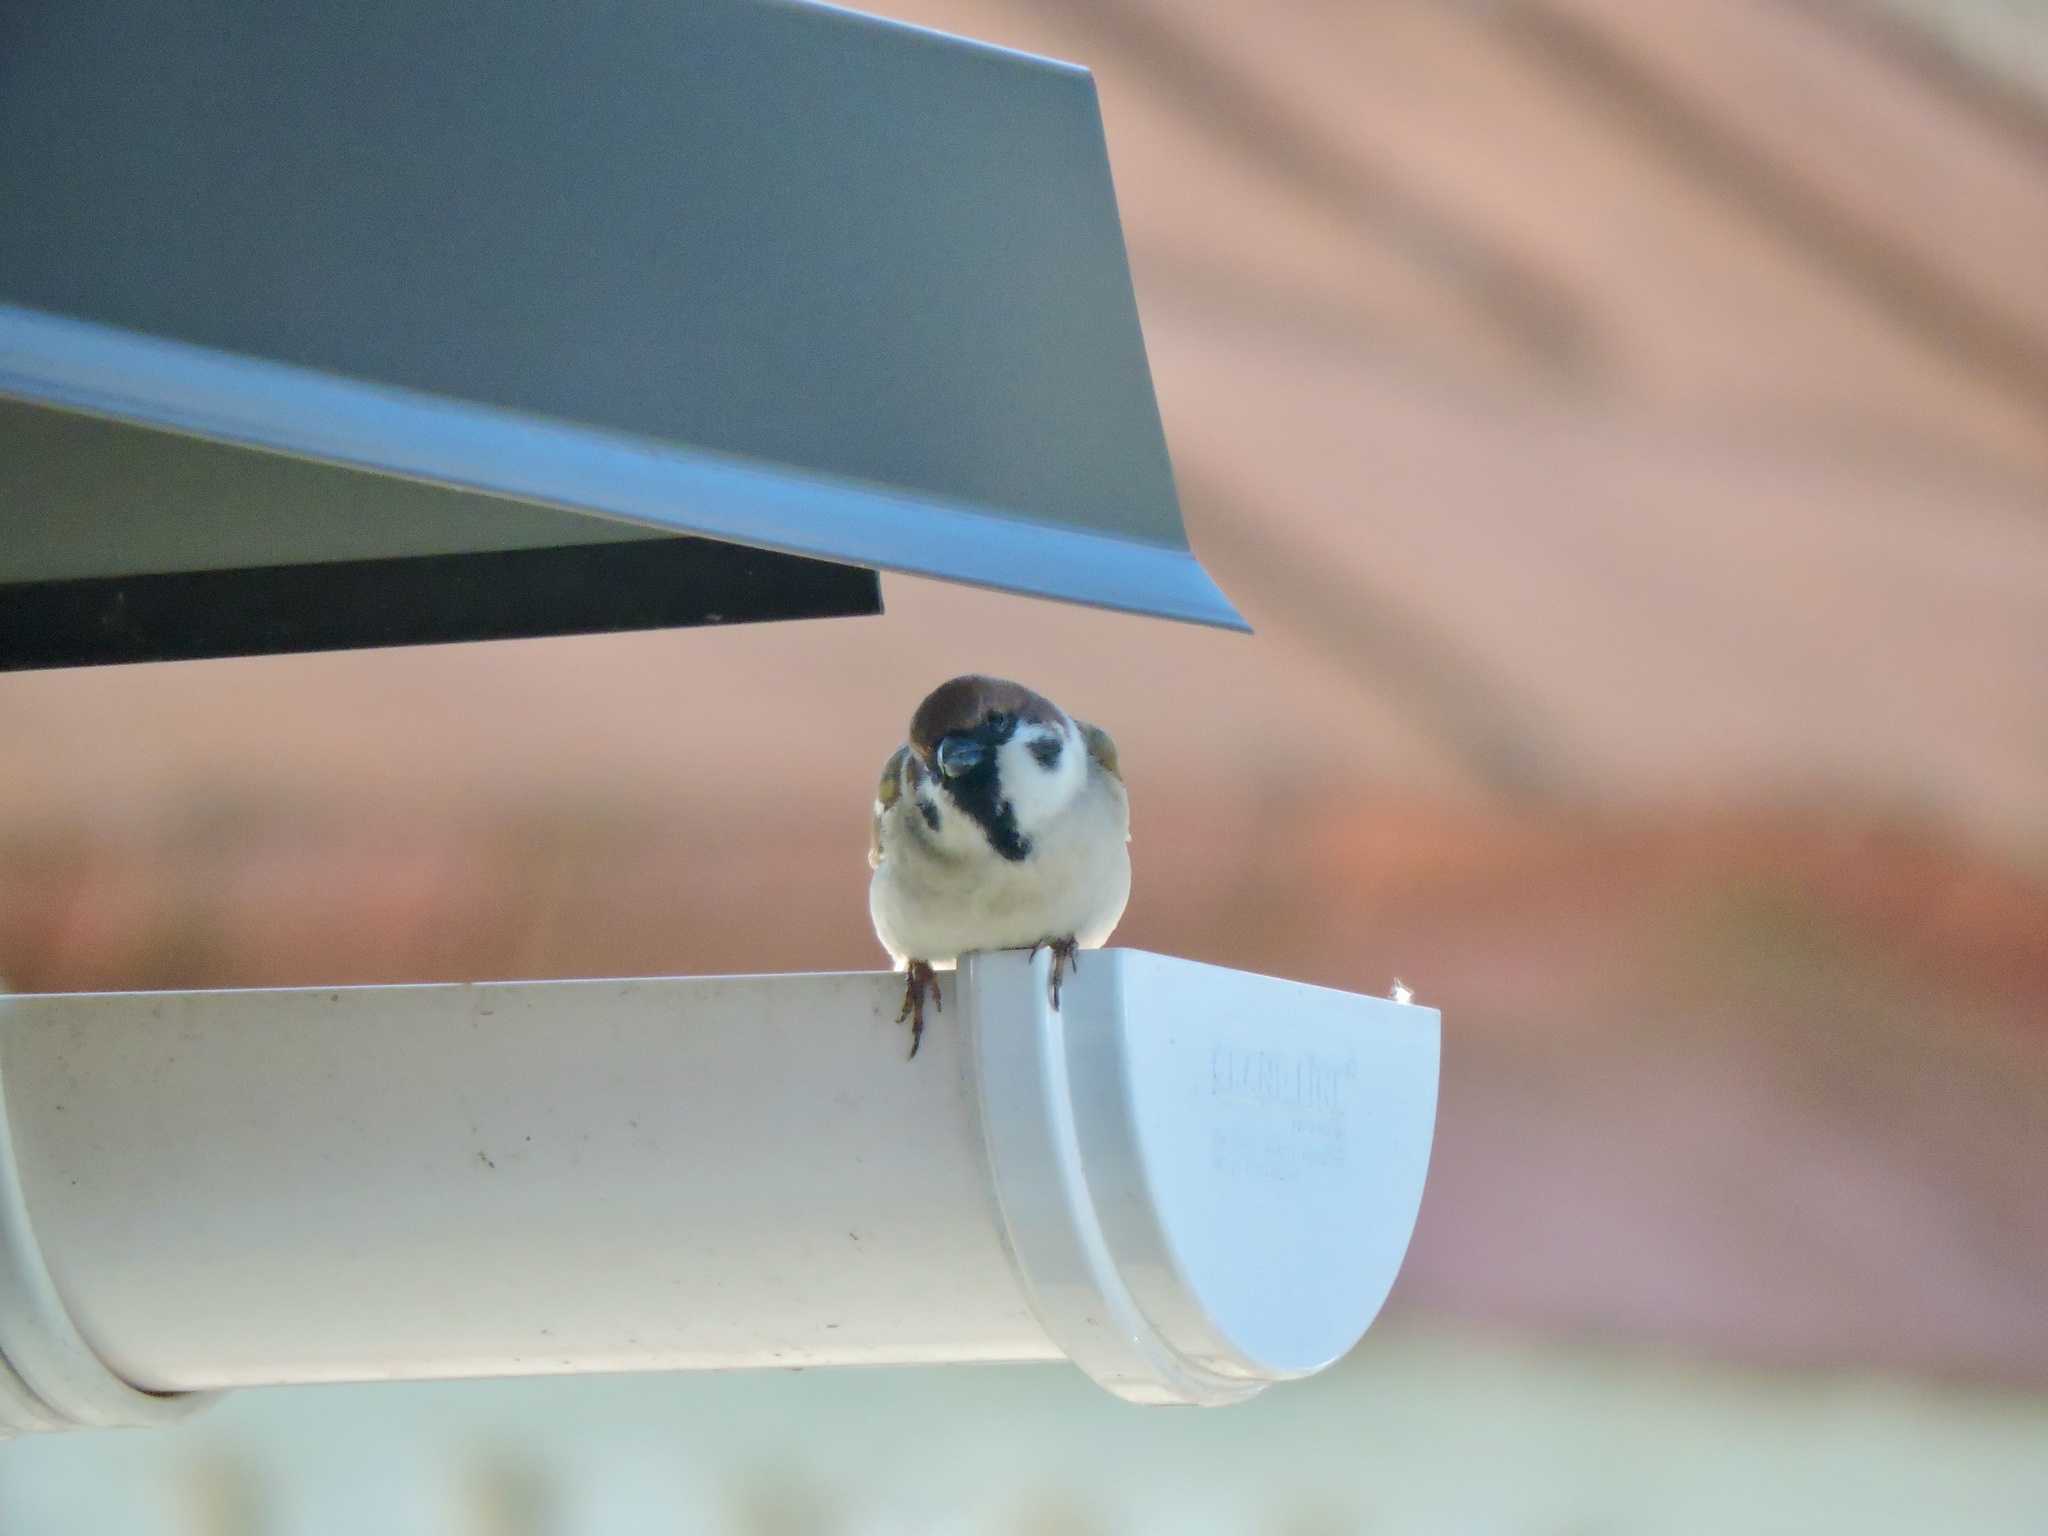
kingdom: Animalia
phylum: Chordata
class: Aves
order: Passeriformes
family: Passeridae
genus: Passer
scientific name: Passer montanus
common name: Eurasian tree sparrow
